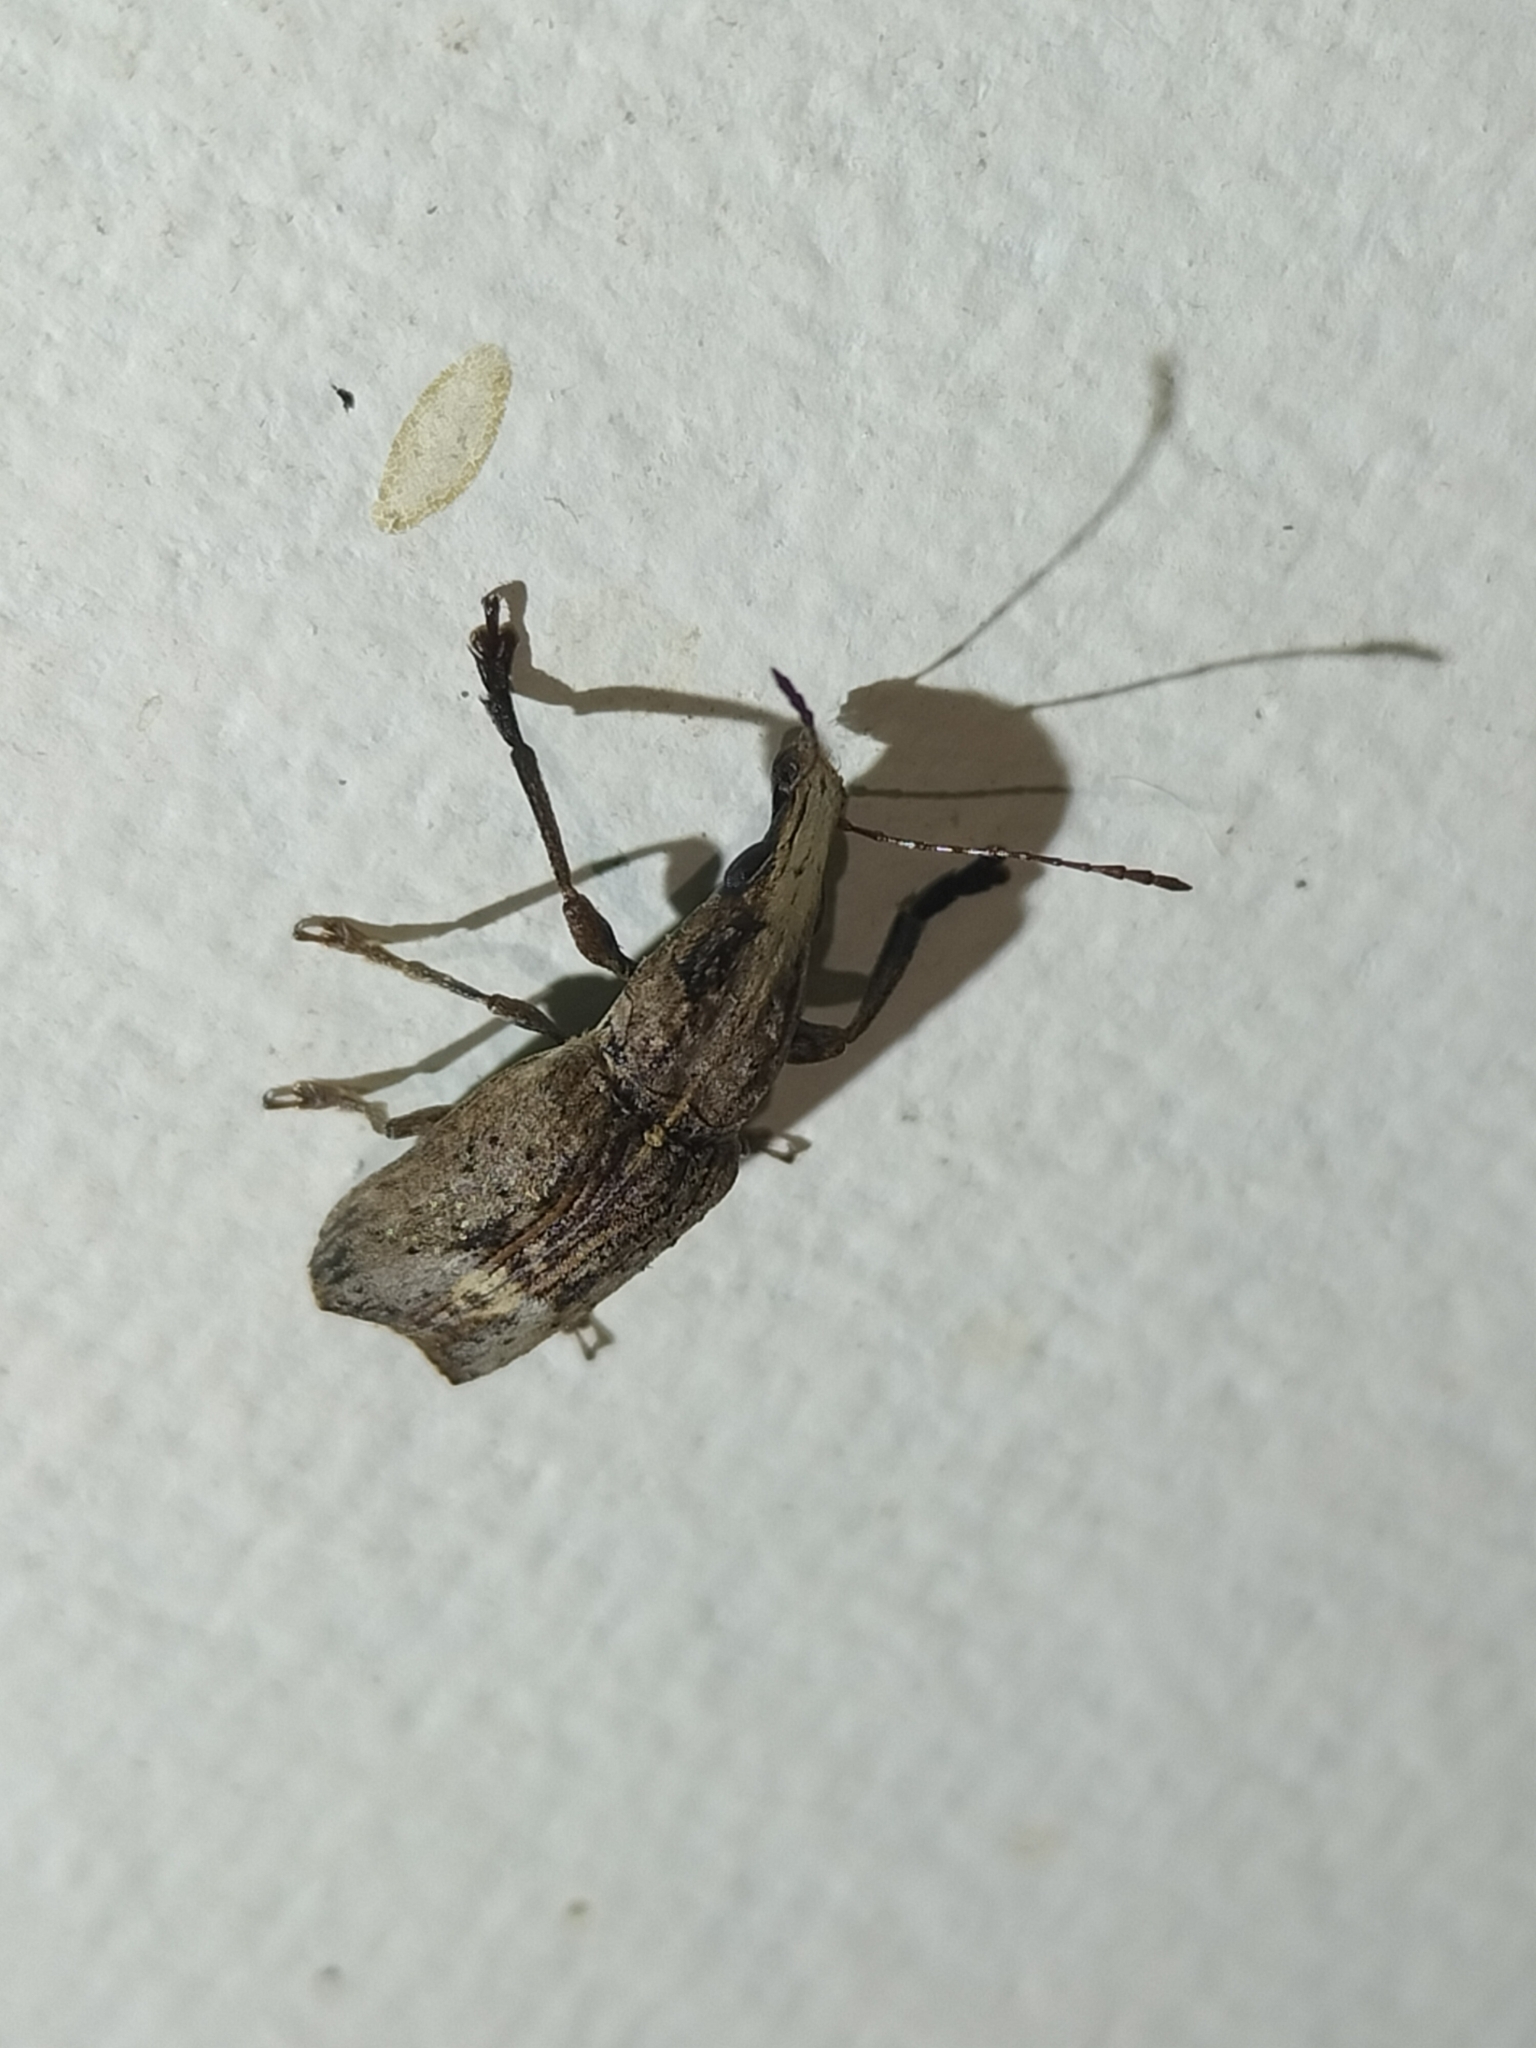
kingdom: Animalia
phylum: Arthropoda
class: Insecta
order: Coleoptera
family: Anthribidae
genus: Ancylotropis
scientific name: Ancylotropis waterhousei
